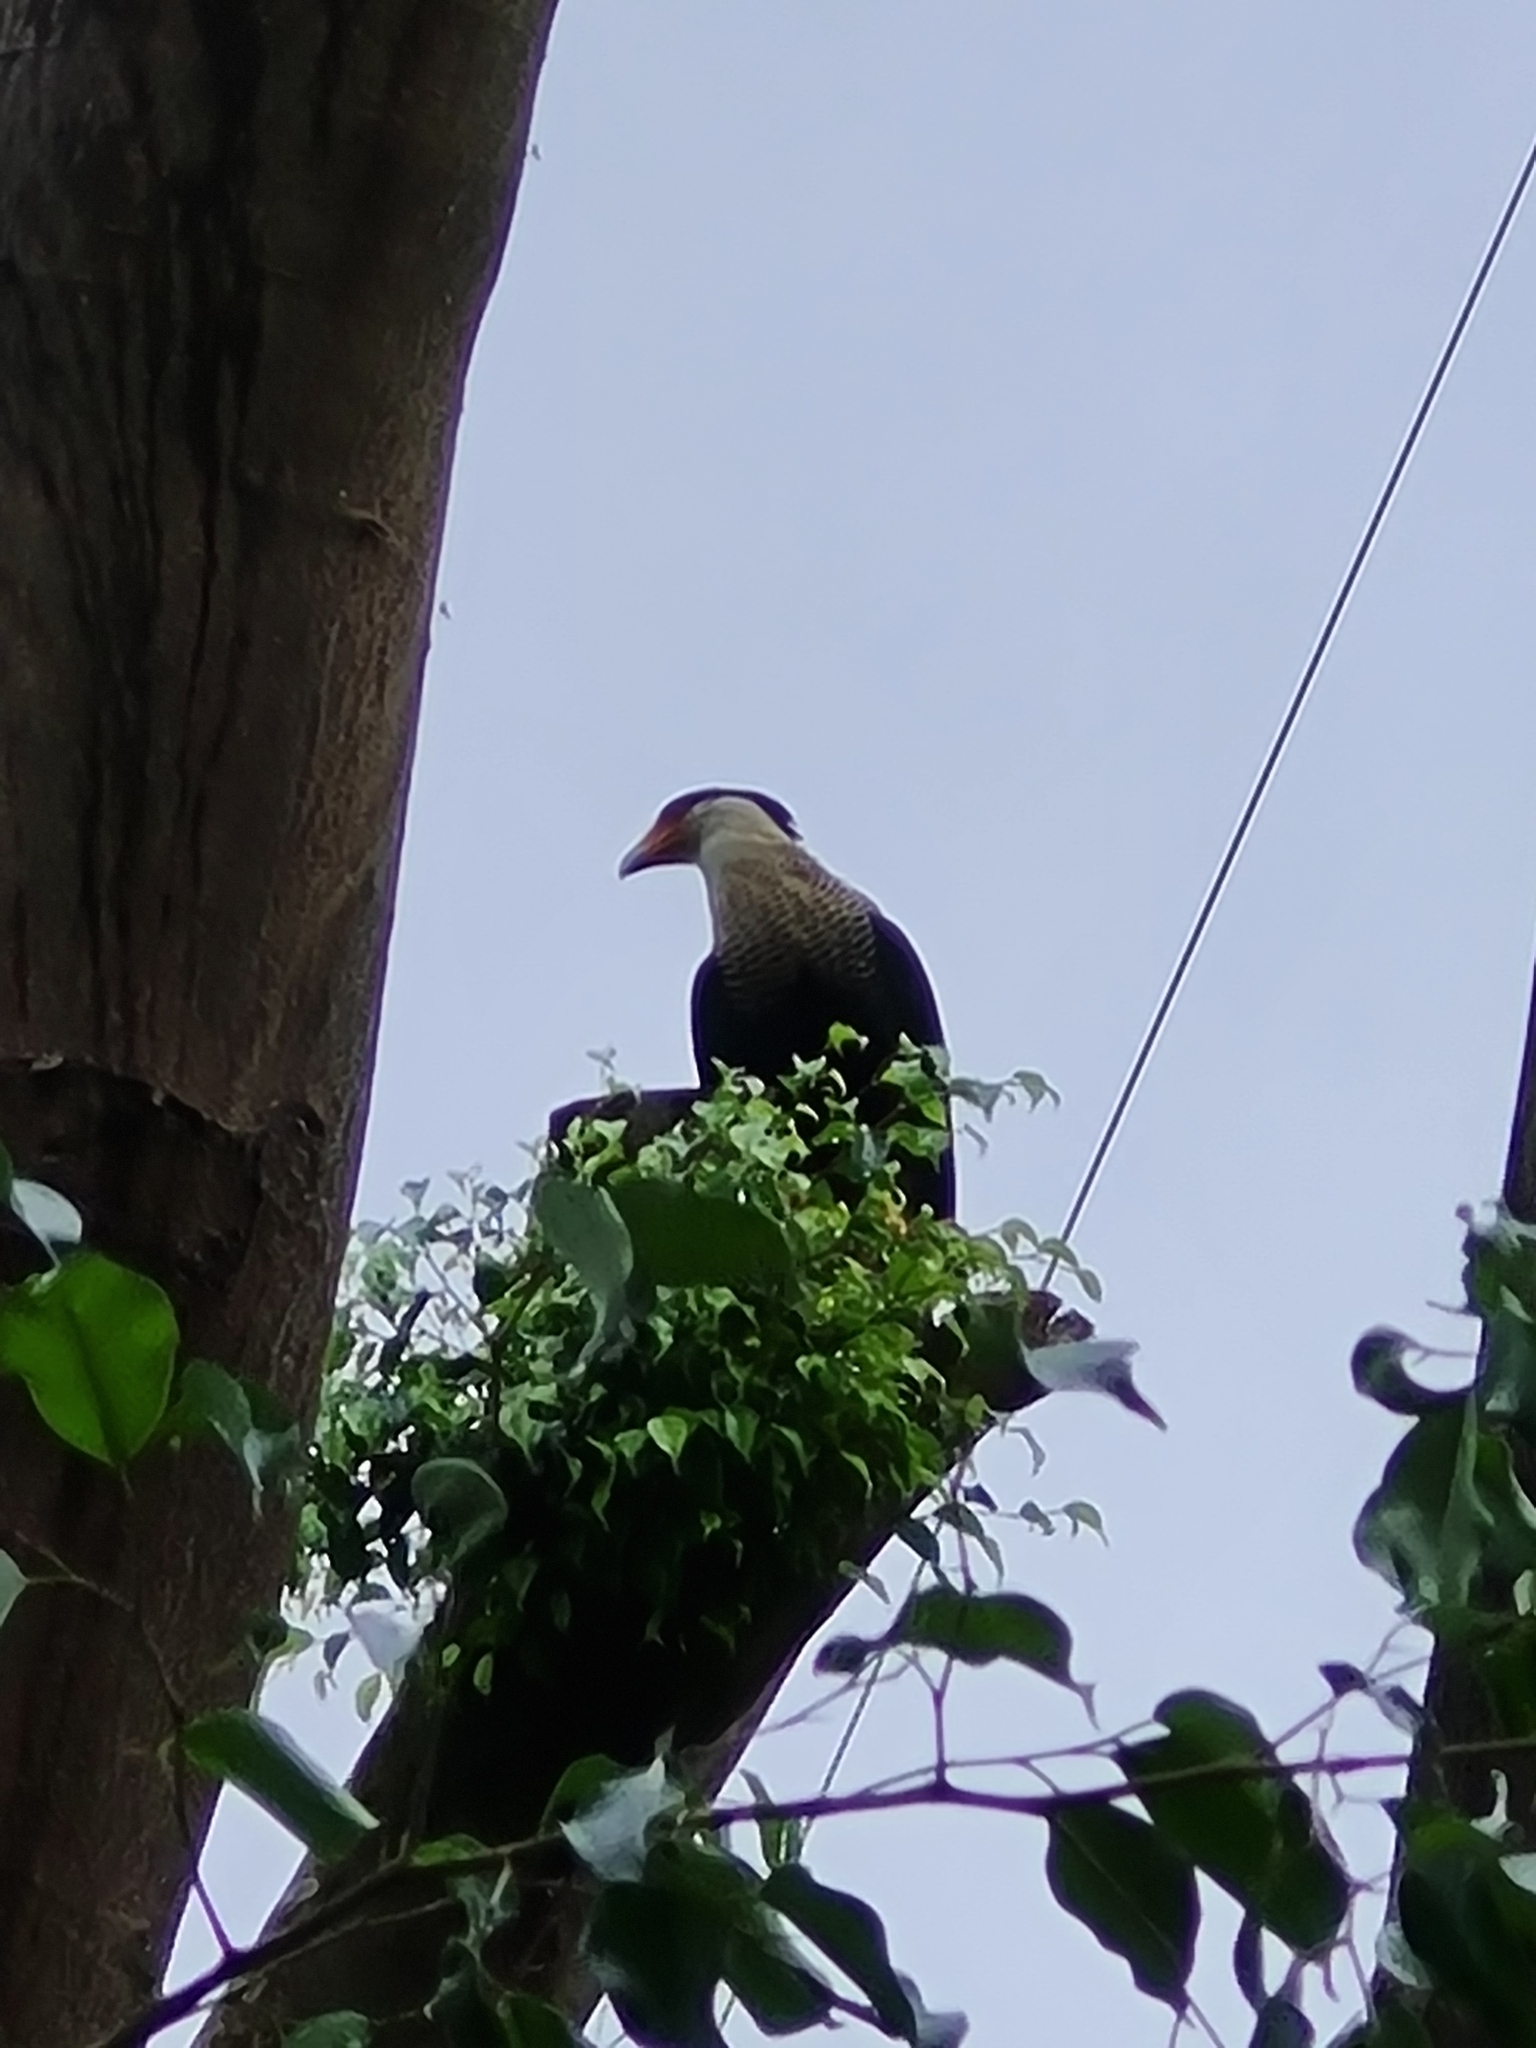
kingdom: Animalia
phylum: Chordata
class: Aves
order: Falconiformes
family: Falconidae
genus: Caracara
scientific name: Caracara plancus
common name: Southern caracara
